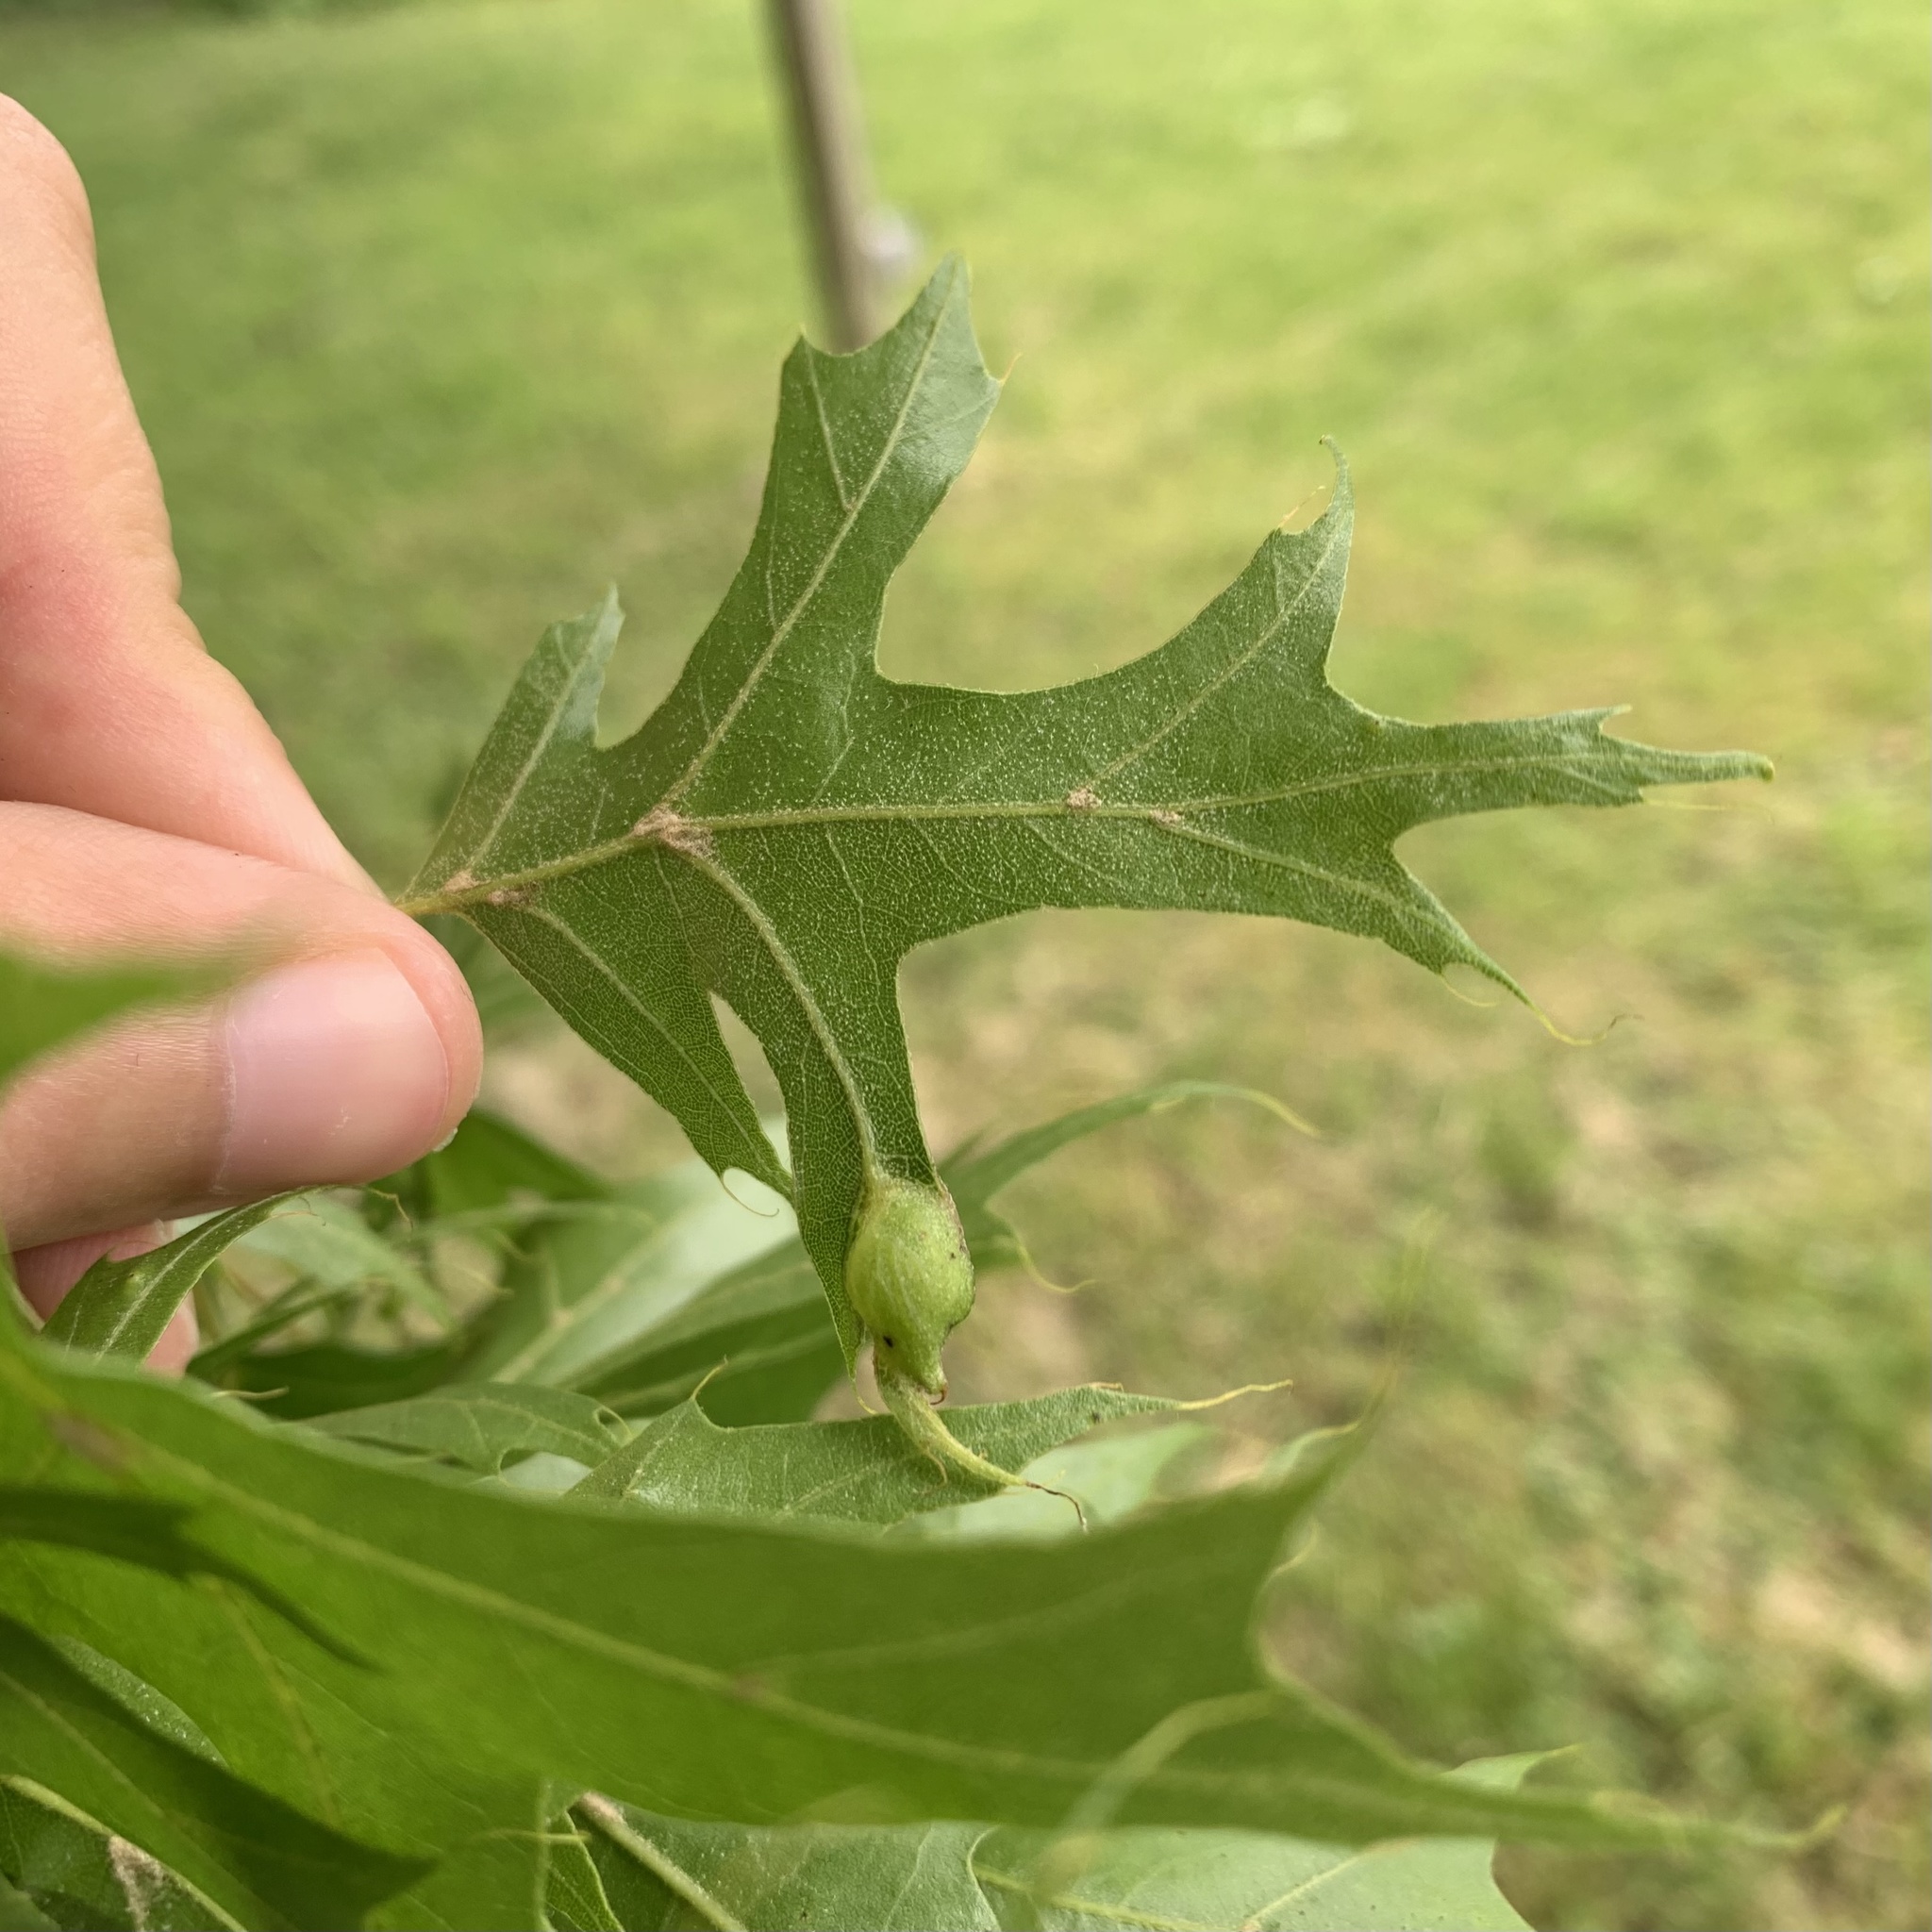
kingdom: Animalia
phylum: Arthropoda
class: Insecta
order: Hymenoptera
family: Cynipidae
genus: Dryocosmus
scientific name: Dryocosmus
